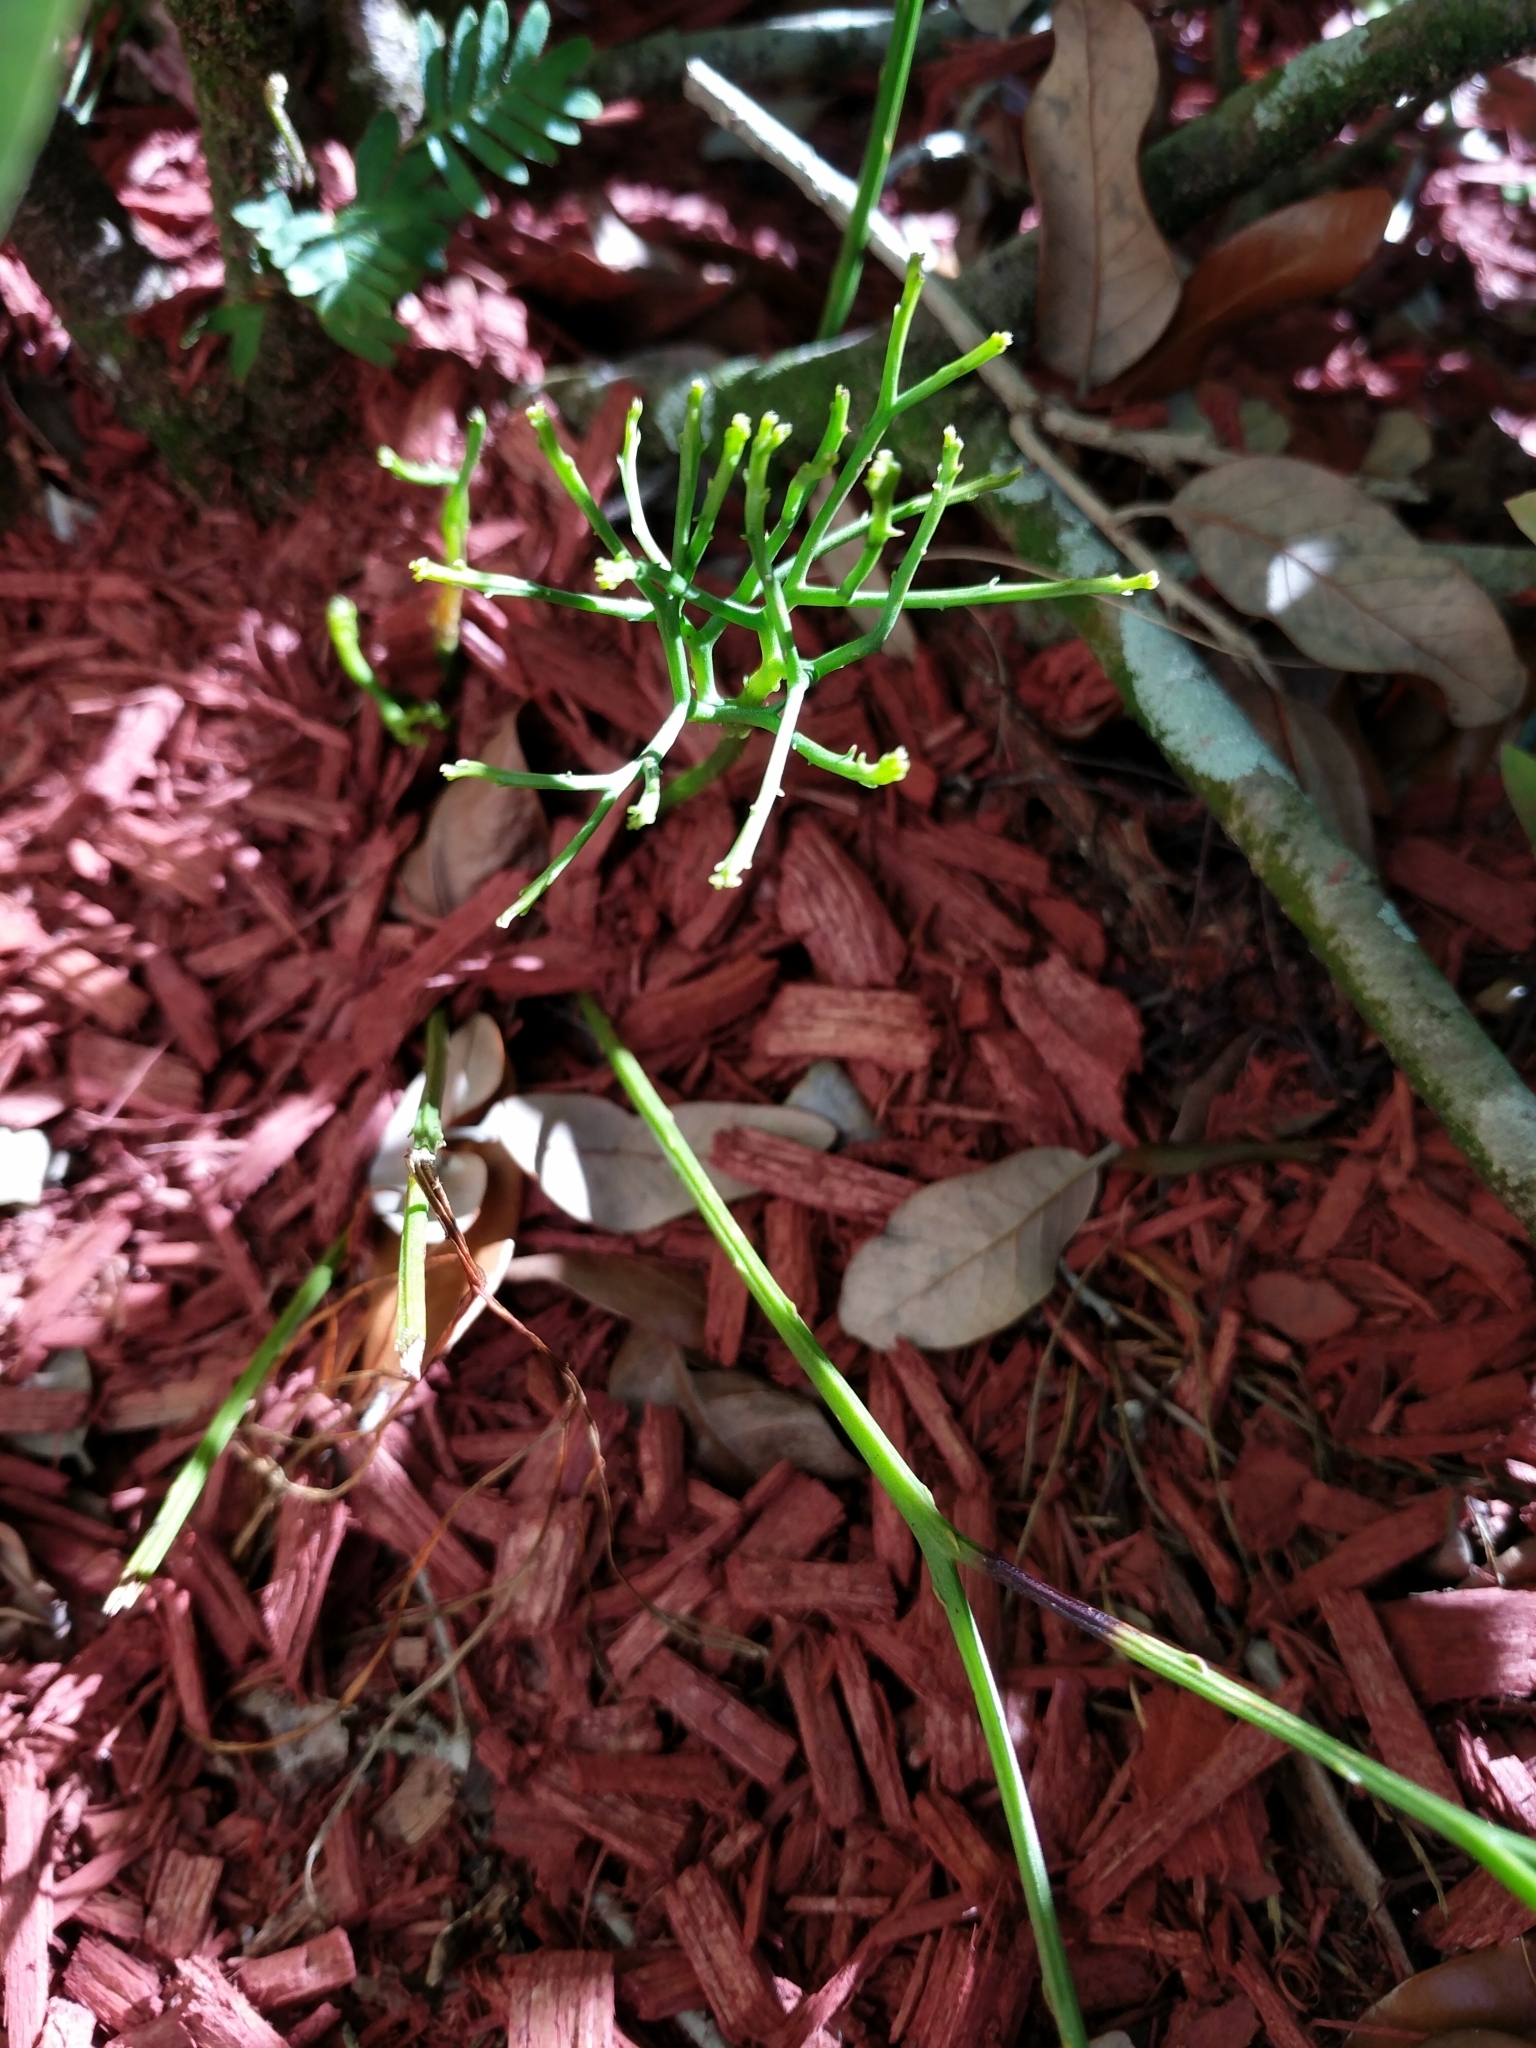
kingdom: Plantae
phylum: Tracheophyta
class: Polypodiopsida
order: Psilotales
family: Psilotaceae
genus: Psilotum
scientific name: Psilotum nudum
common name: Skeleton fork fern
